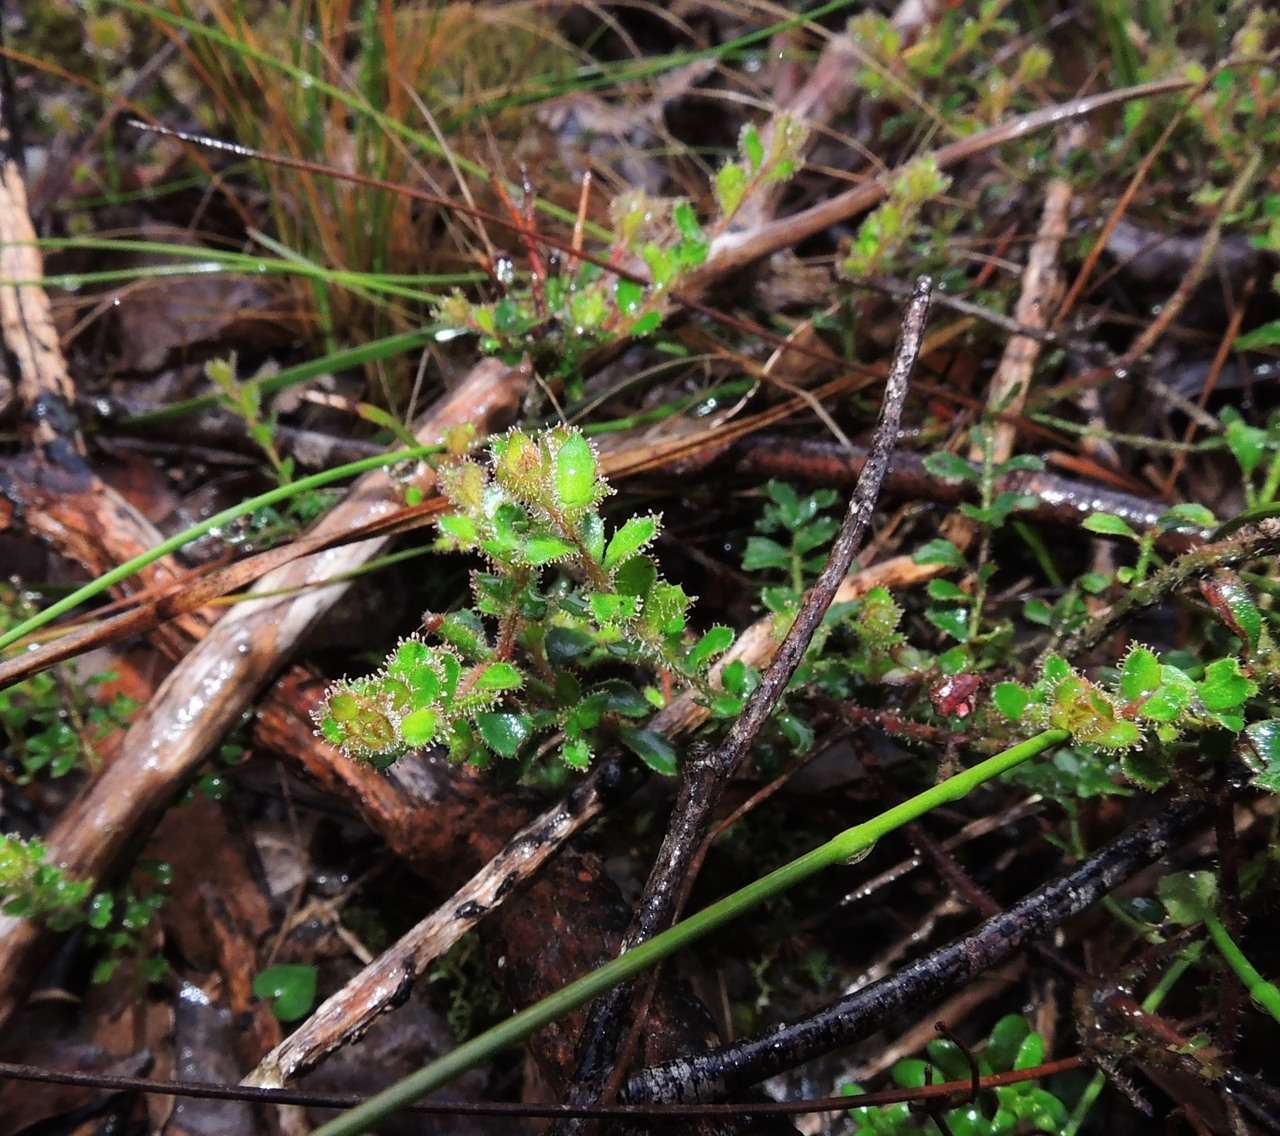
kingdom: Plantae
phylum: Tracheophyta
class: Magnoliopsida
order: Oxalidales
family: Elaeocarpaceae
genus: Tetratheca
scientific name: Tetratheca labillardierei
